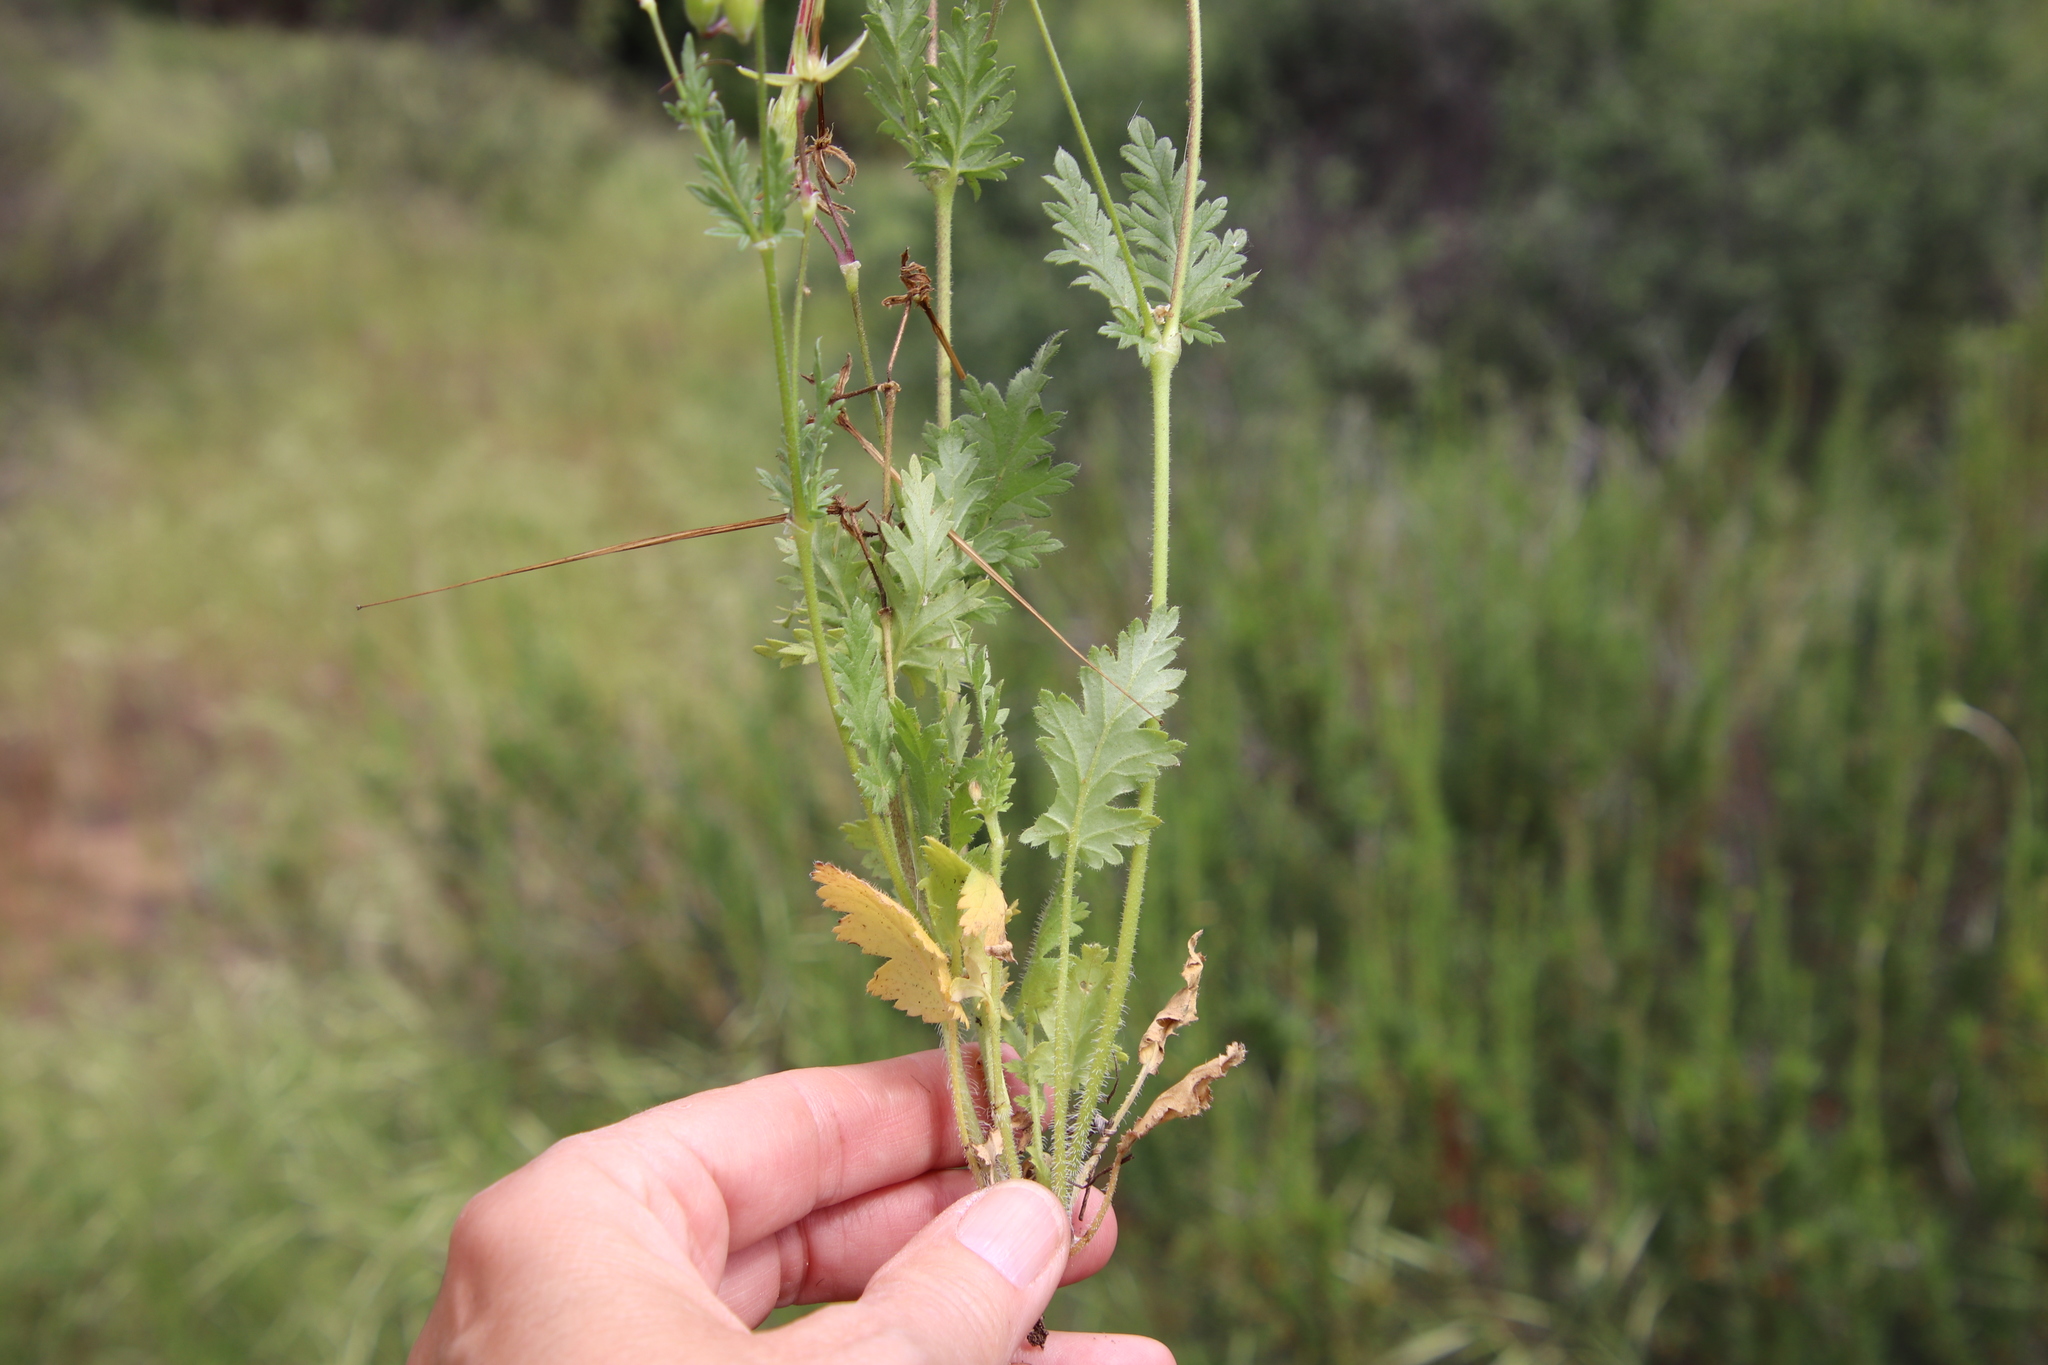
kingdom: Plantae
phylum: Tracheophyta
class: Magnoliopsida
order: Geraniales
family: Geraniaceae
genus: Erodium
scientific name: Erodium brachycarpum
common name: Hairy-pitted stork's-bill
